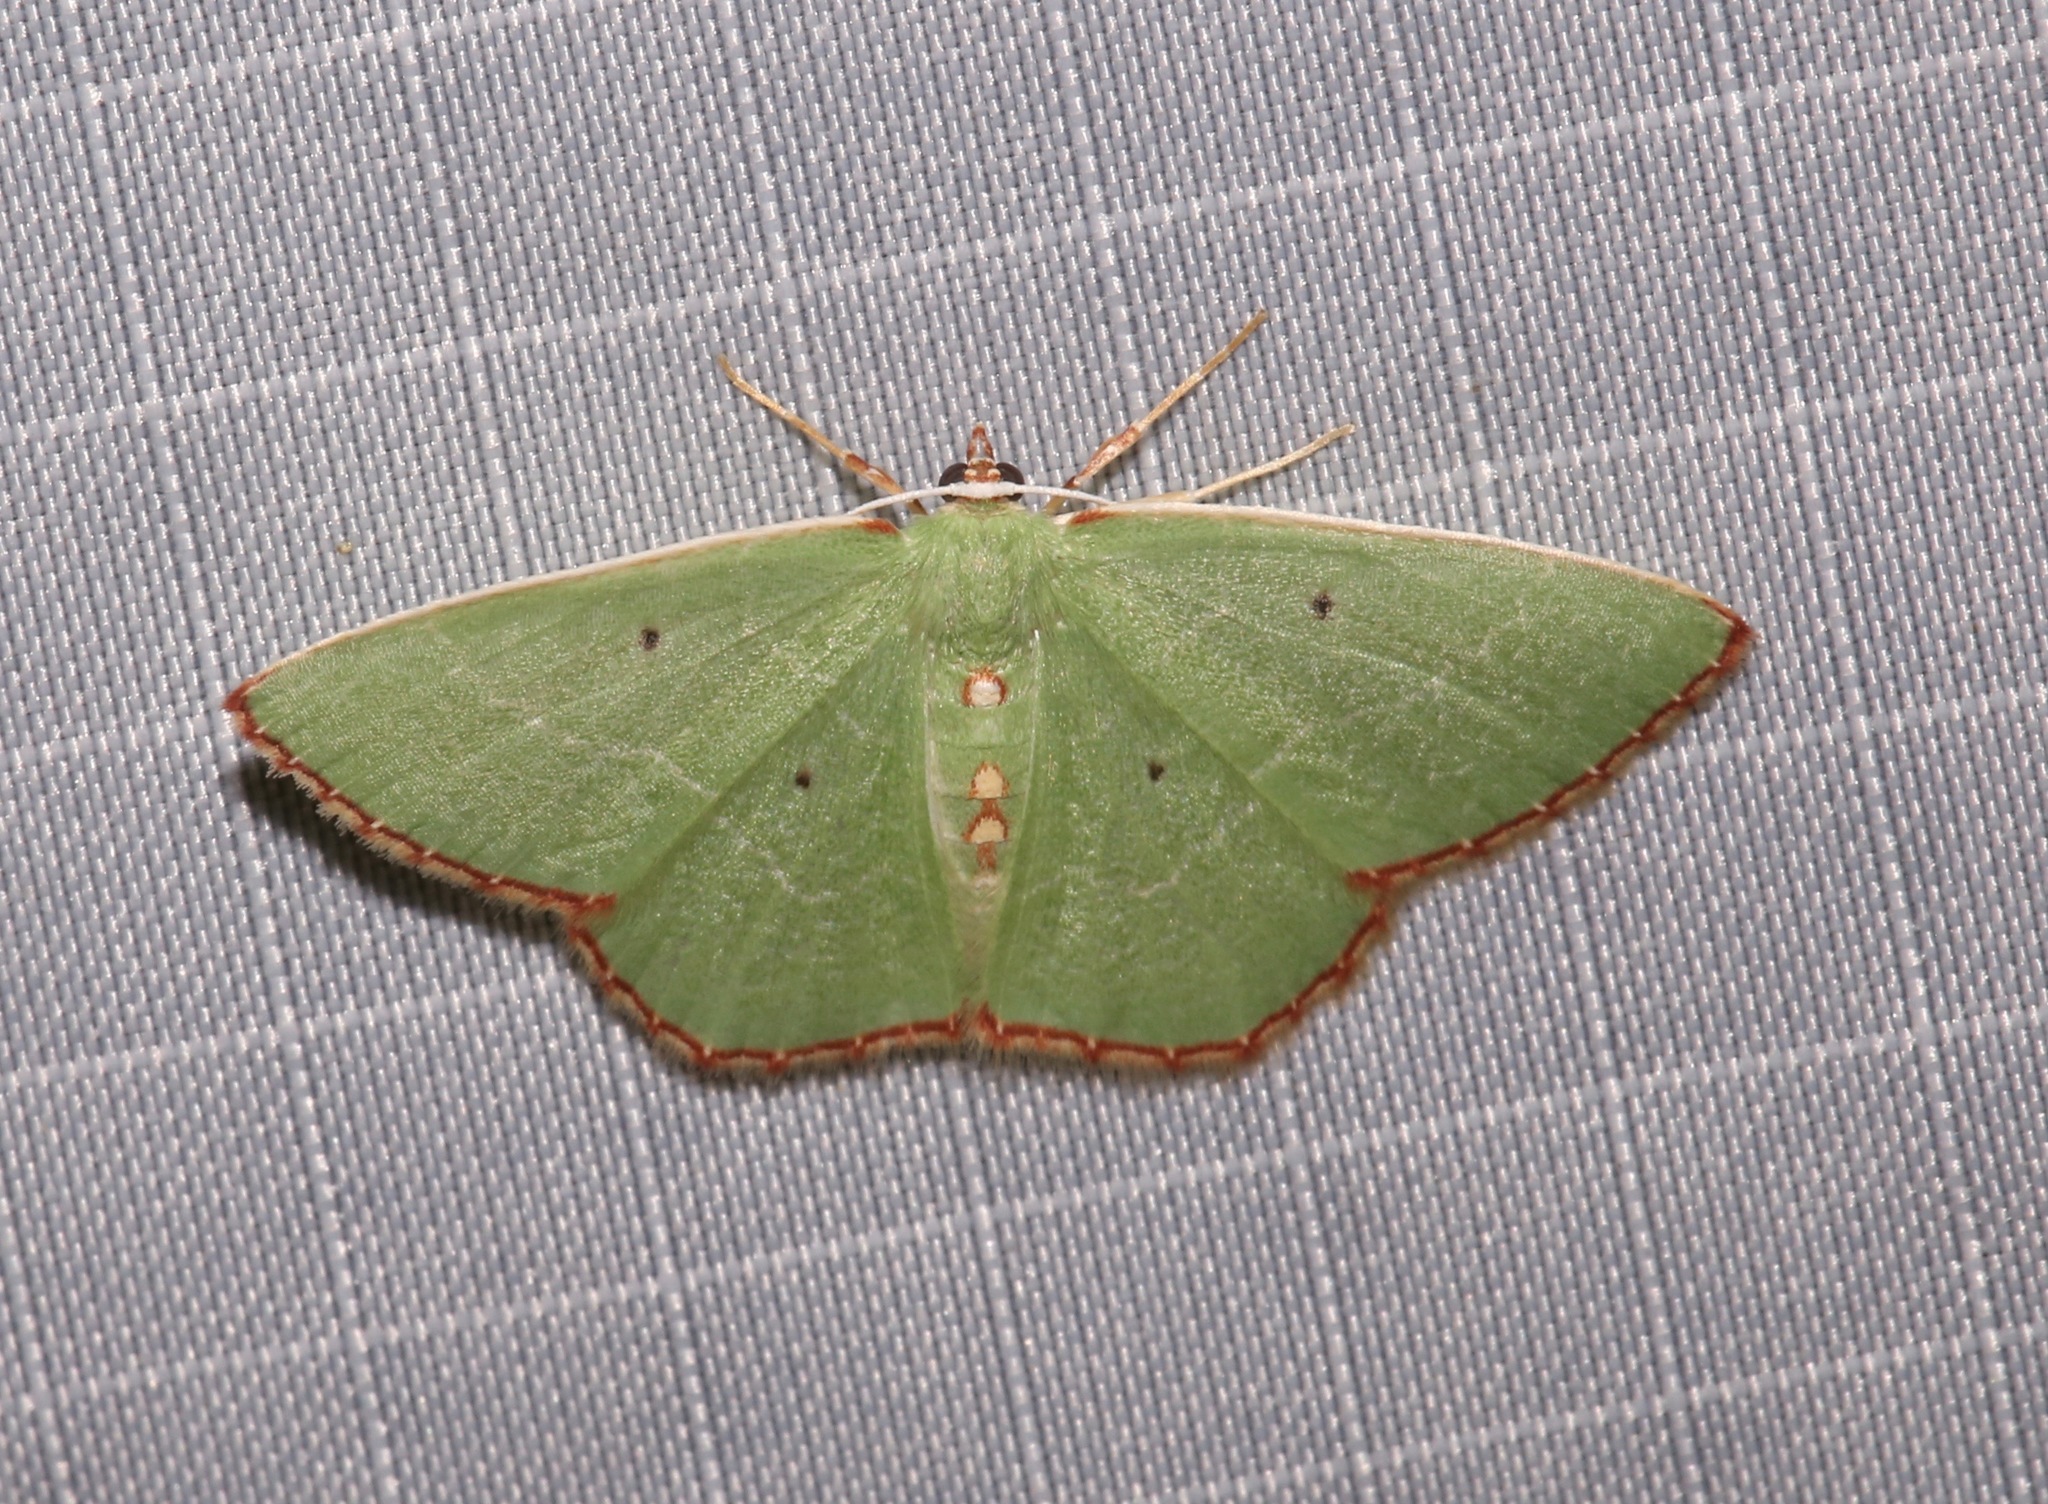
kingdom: Animalia
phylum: Arthropoda
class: Insecta
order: Lepidoptera
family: Geometridae
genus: Nemoria
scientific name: Nemoria lixaria
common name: Red-bordered emerald
